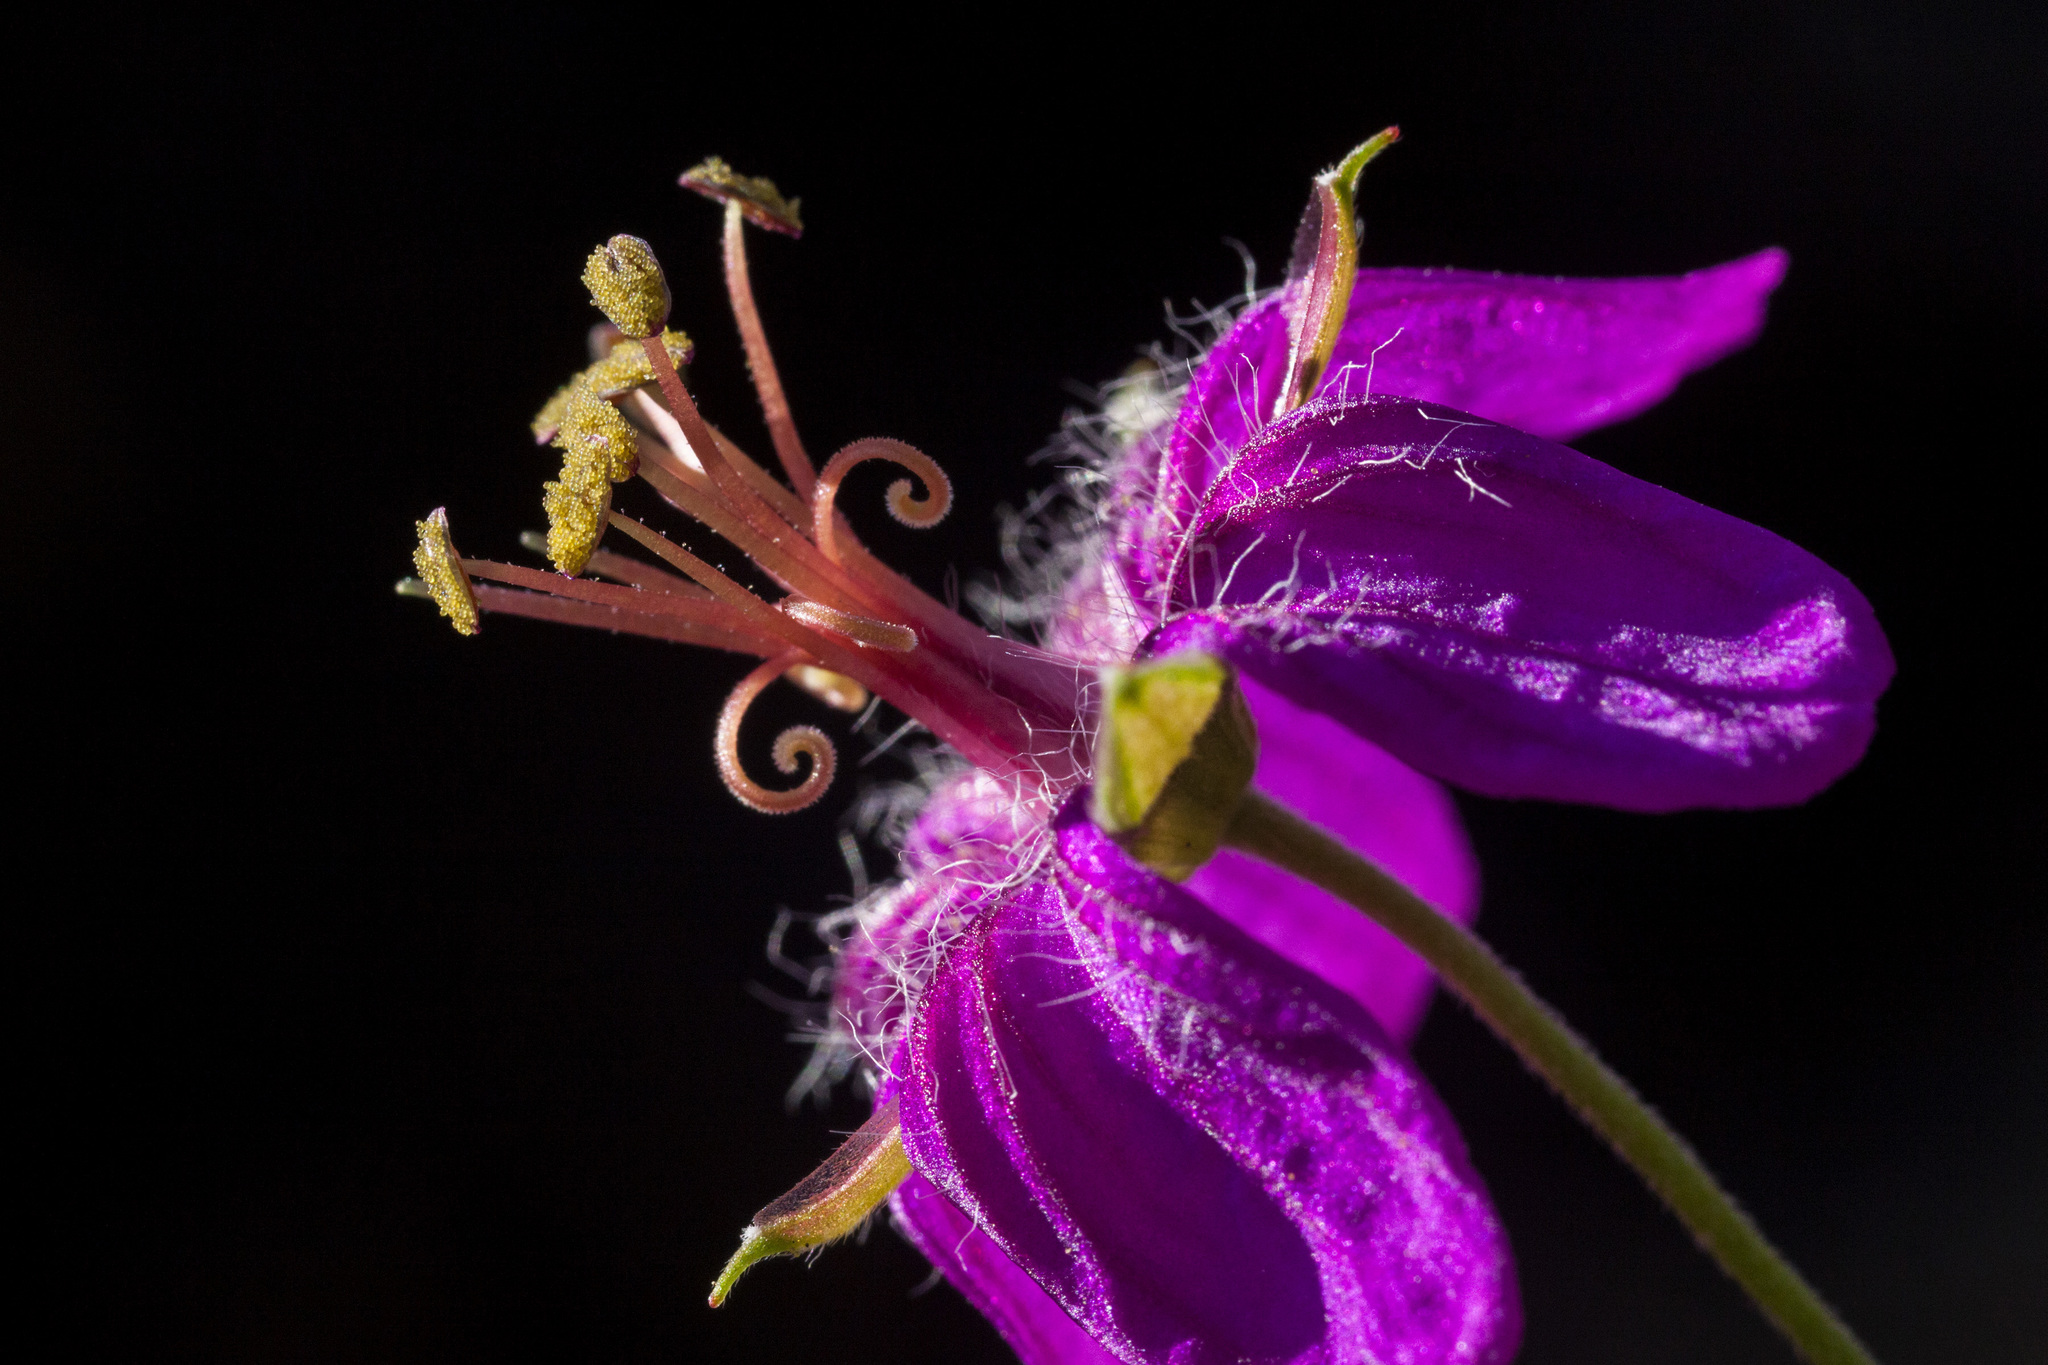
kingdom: Plantae
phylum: Tracheophyta
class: Magnoliopsida
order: Geraniales
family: Geraniaceae
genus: Geranium
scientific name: Geranium caespitosum
